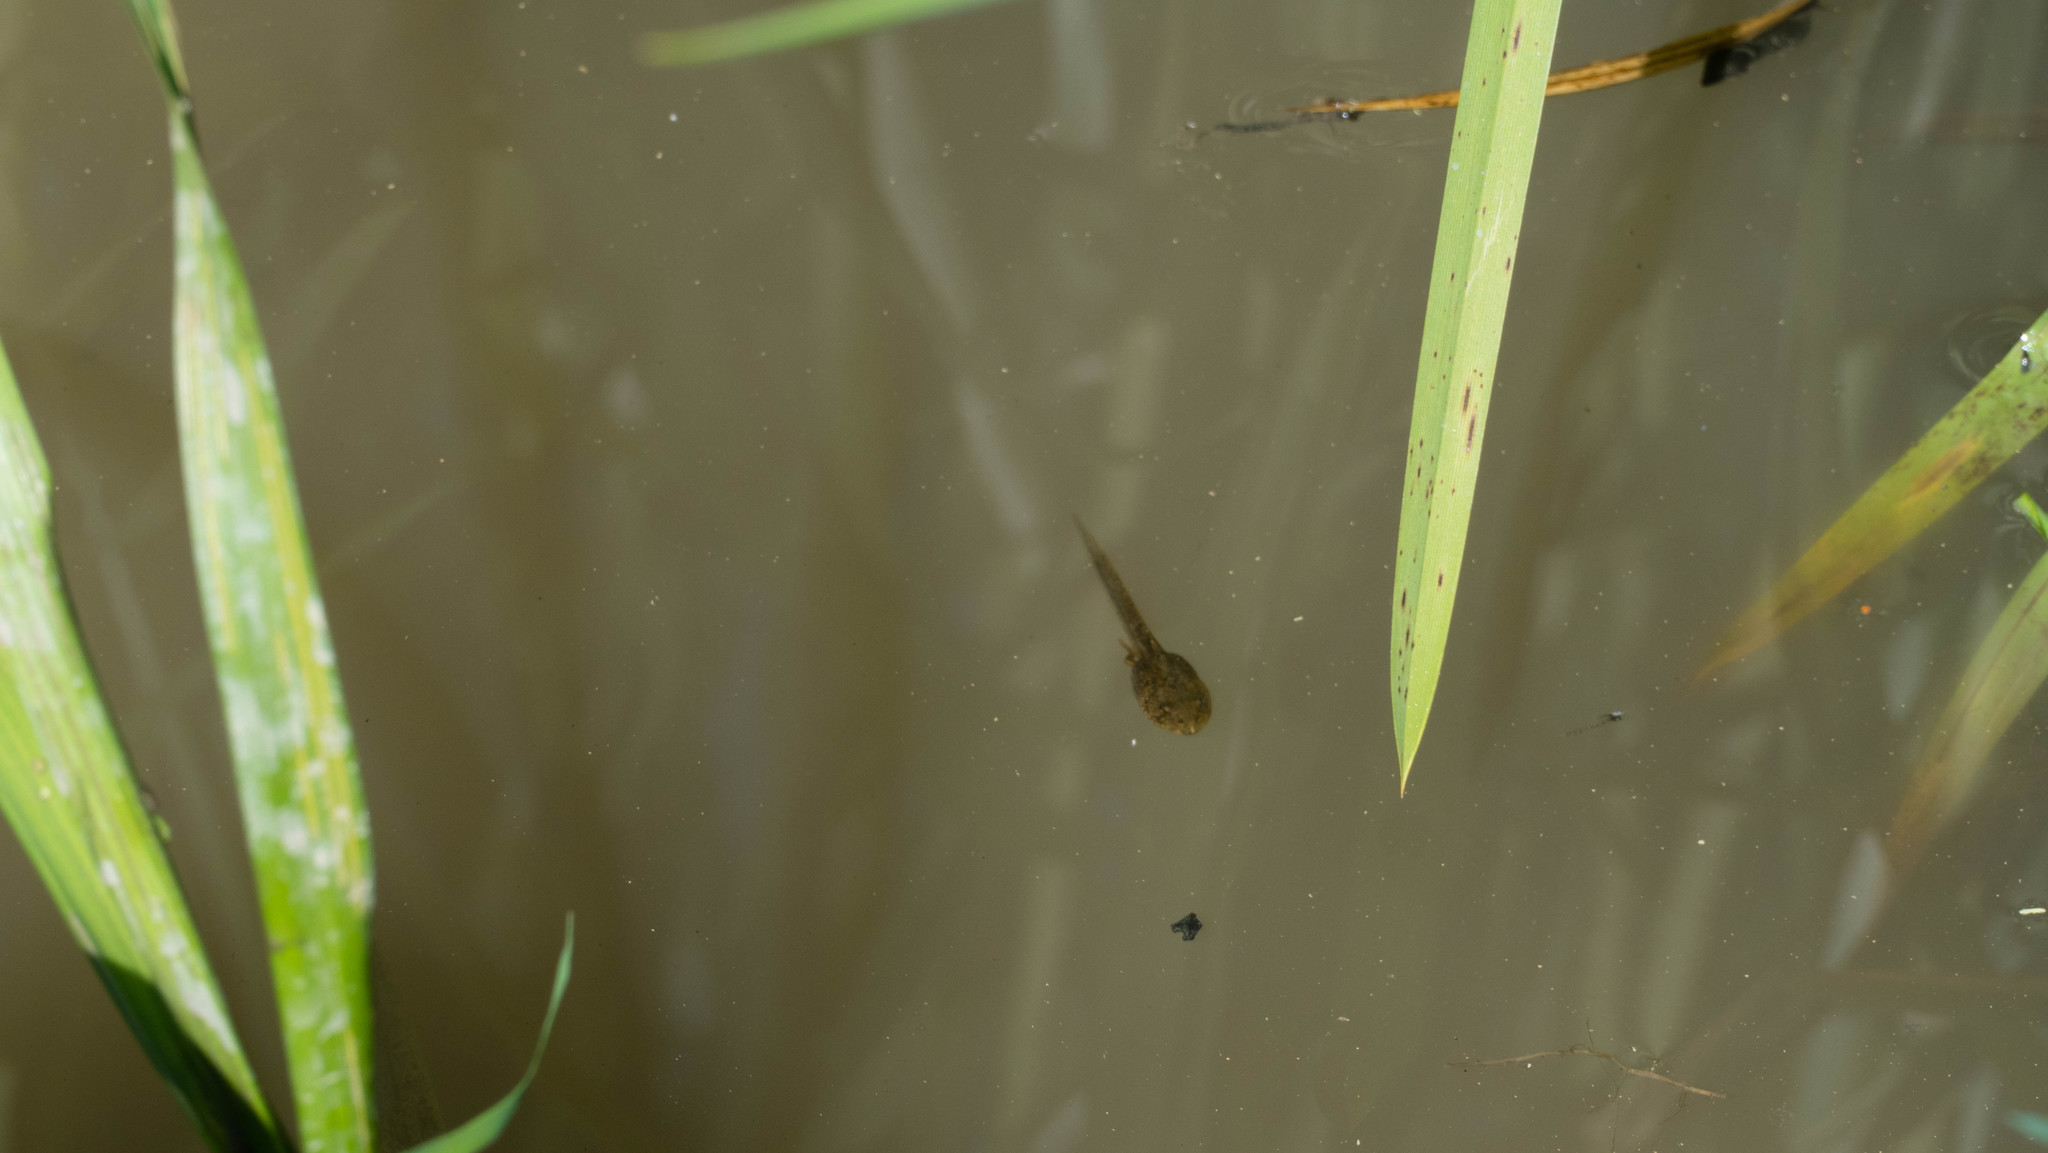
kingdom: Animalia
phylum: Chordata
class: Amphibia
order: Anura
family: Ranidae
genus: Rana
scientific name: Rana temporaria
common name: Common frog
